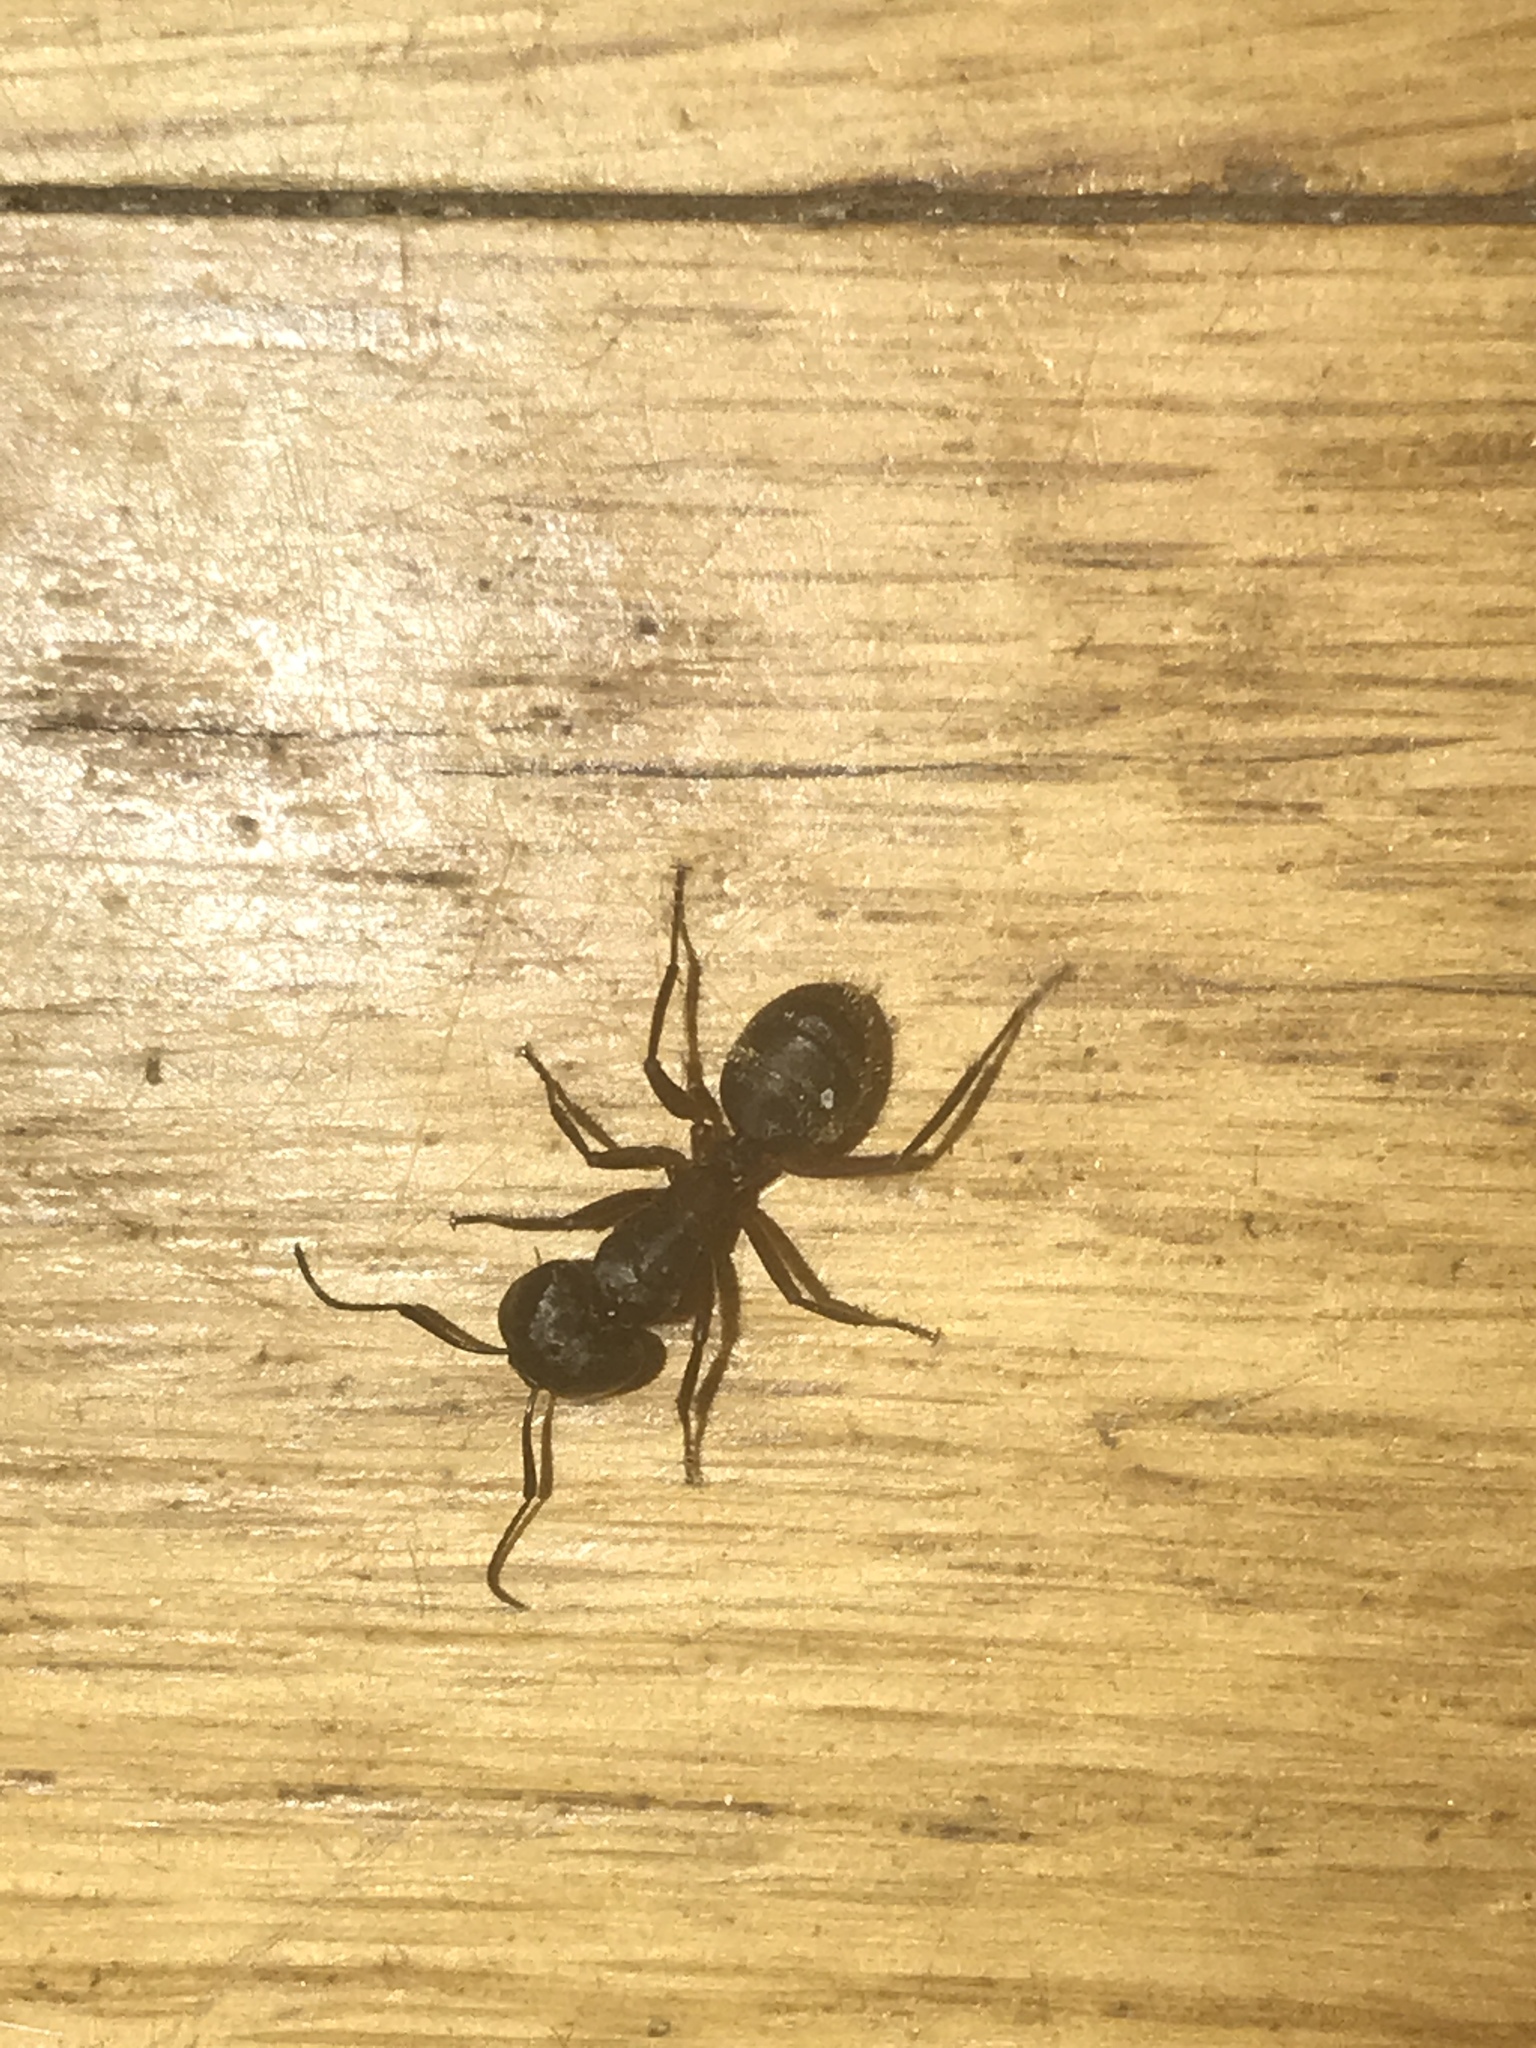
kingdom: Animalia
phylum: Arthropoda
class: Insecta
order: Hymenoptera
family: Formicidae
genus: Camponotus
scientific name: Camponotus pennsylvanicus
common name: Black carpenter ant
